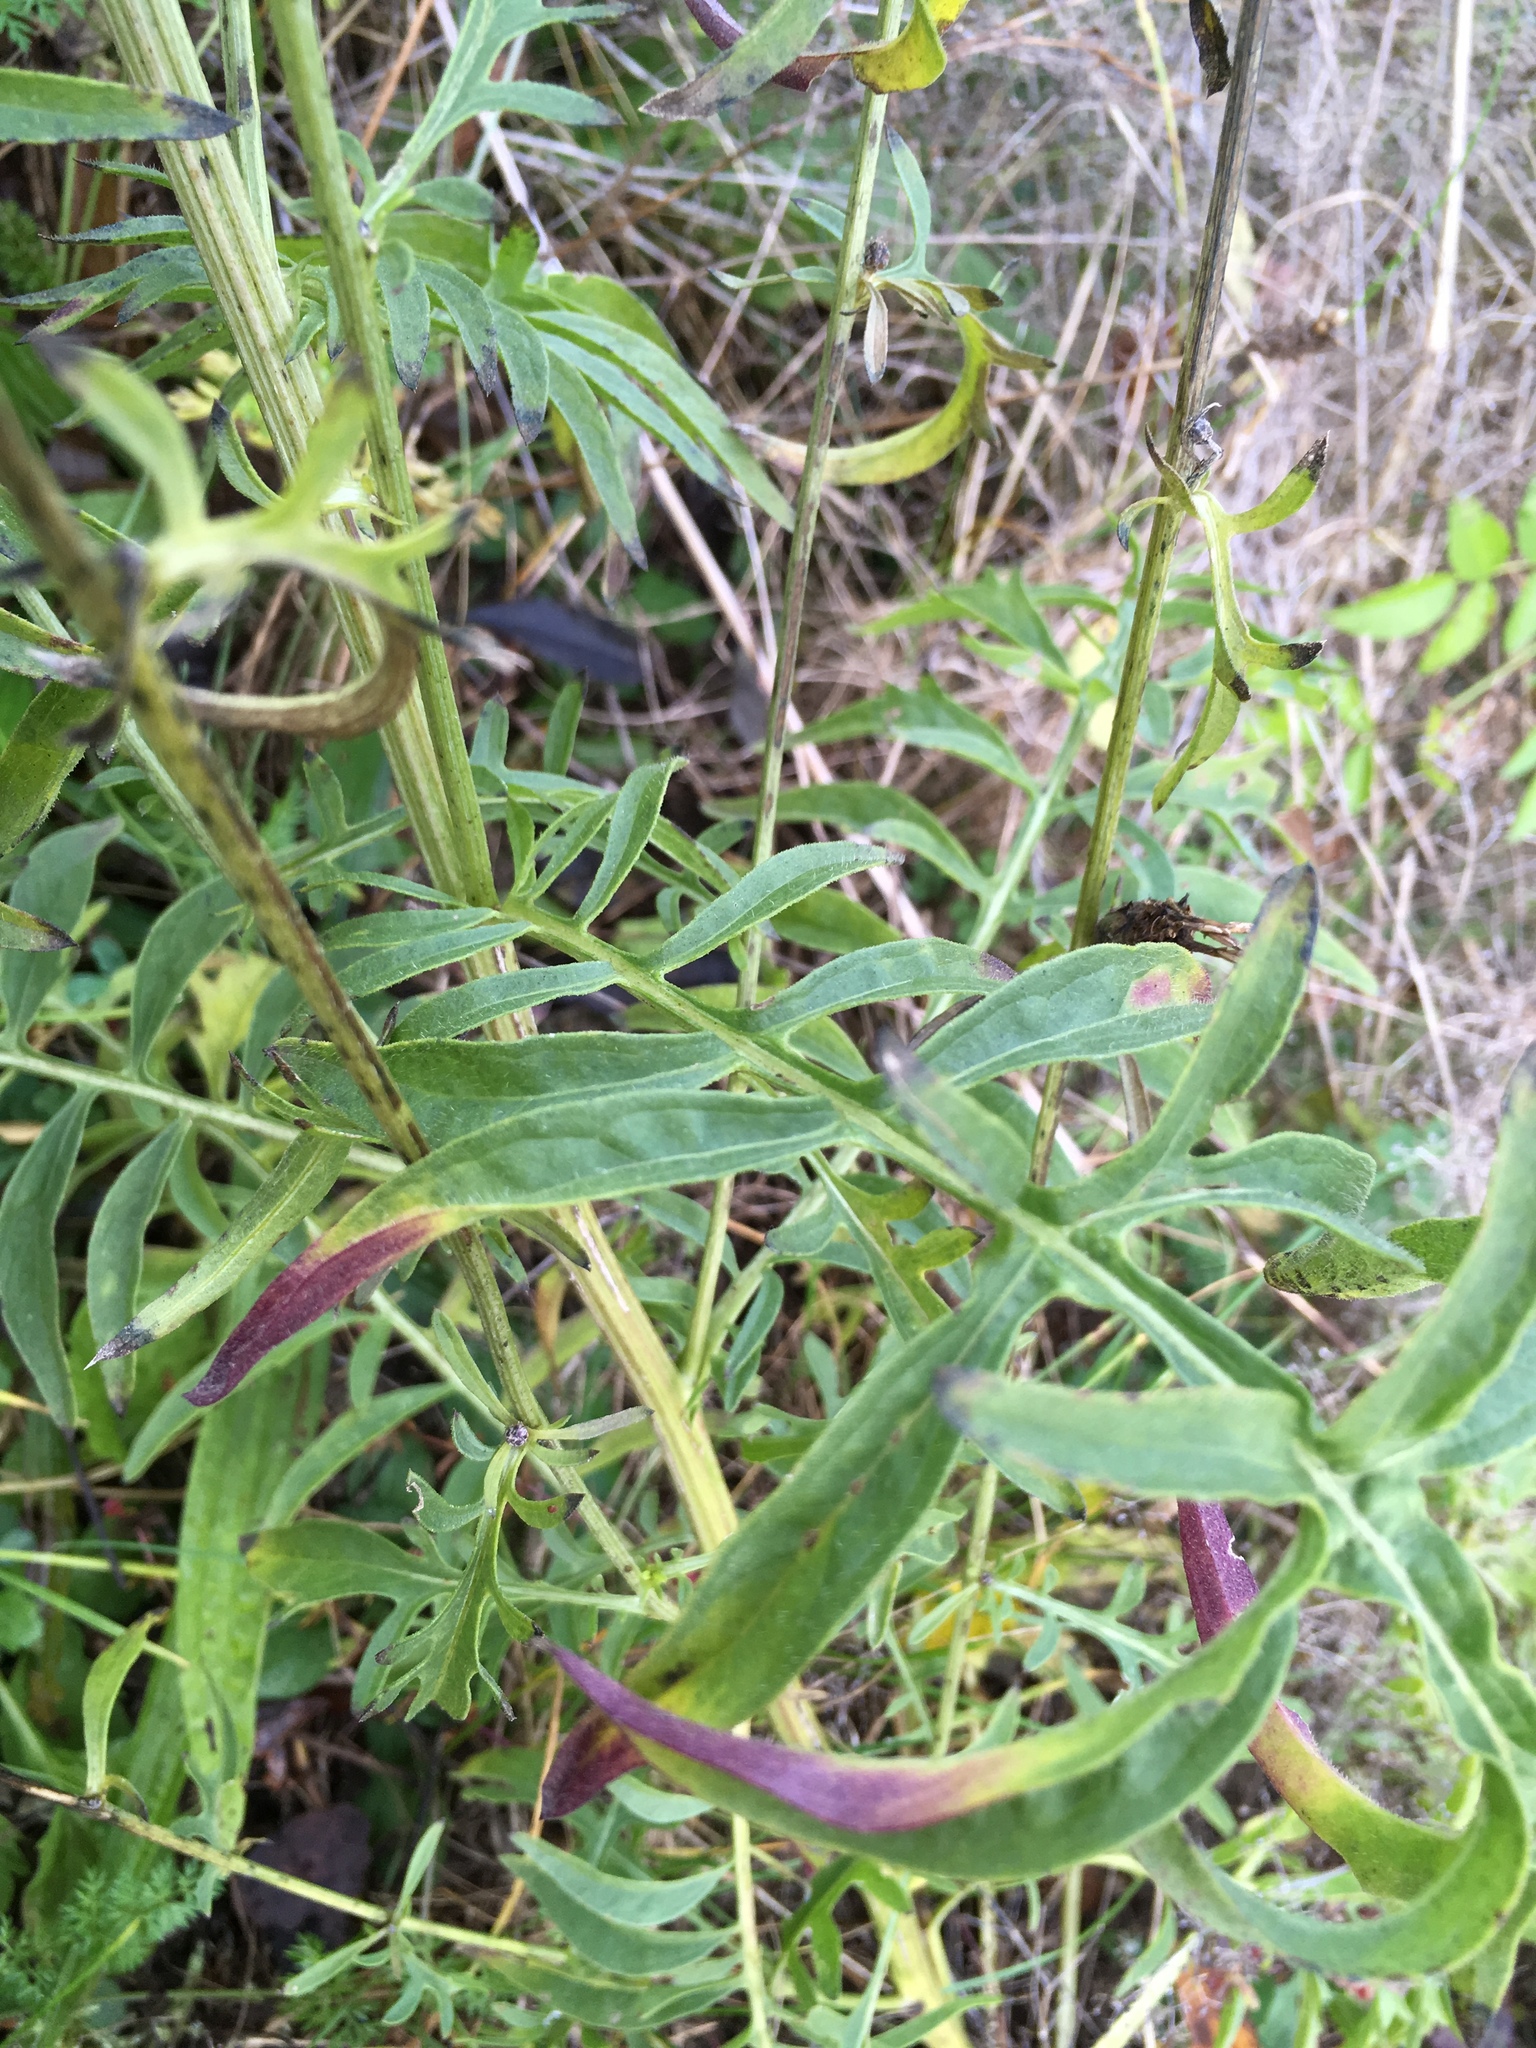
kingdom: Plantae
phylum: Tracheophyta
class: Magnoliopsida
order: Asterales
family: Asteraceae
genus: Centaurea
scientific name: Centaurea scabiosa
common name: Greater knapweed
